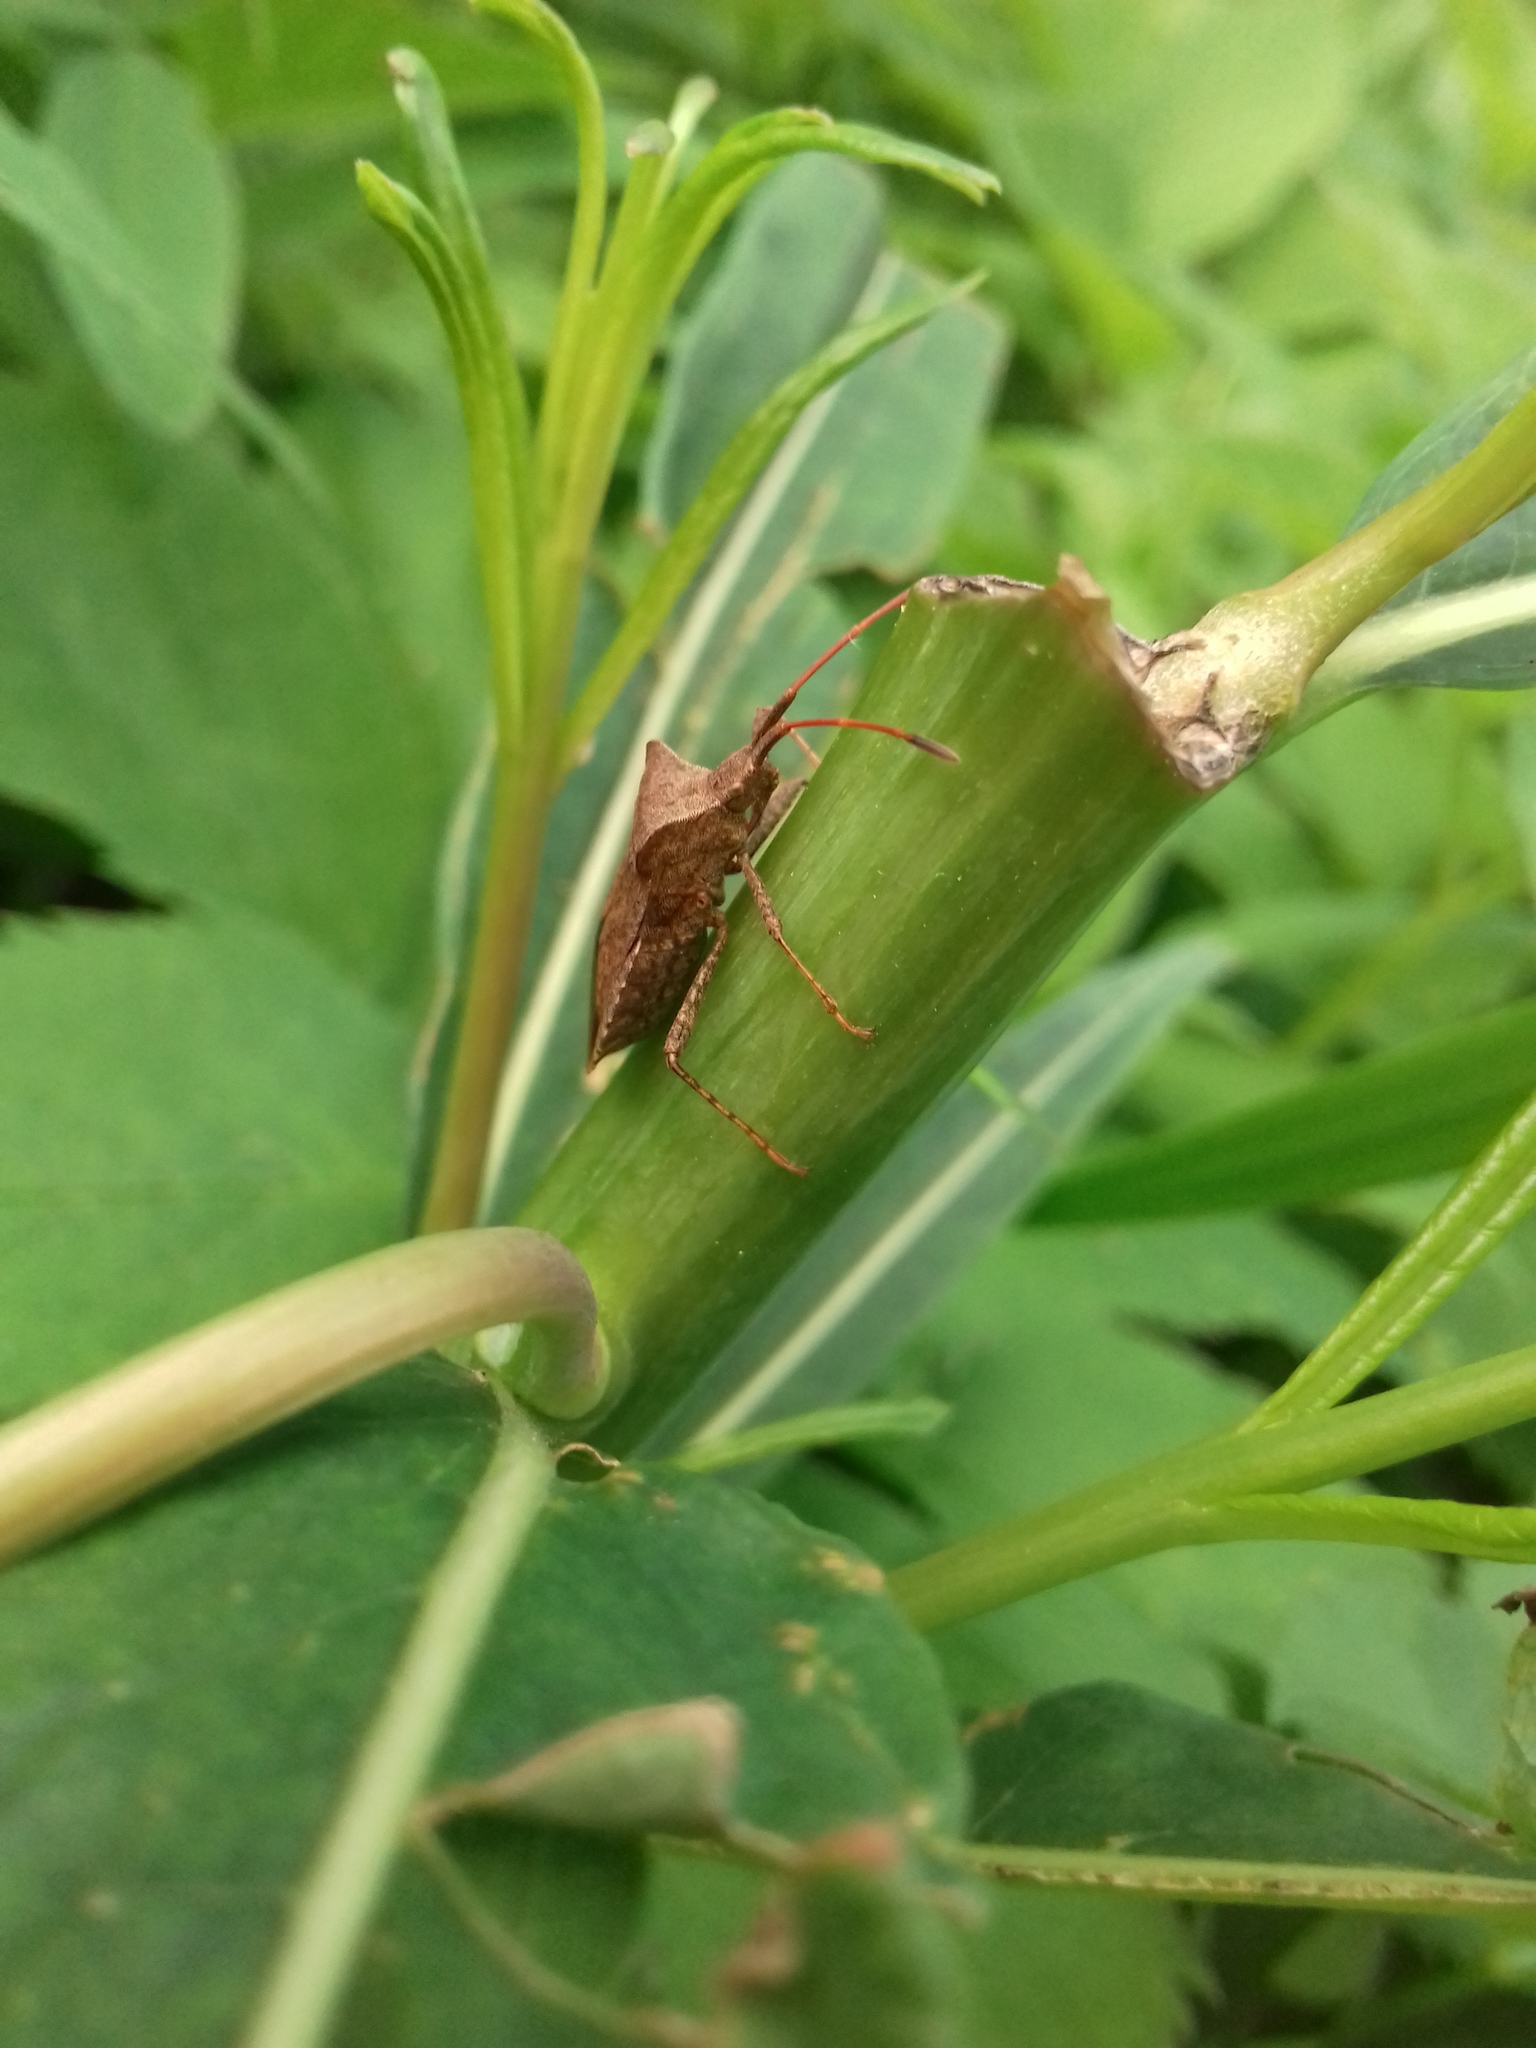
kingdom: Animalia
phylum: Arthropoda
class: Insecta
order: Hemiptera
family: Coreidae
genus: Coreus
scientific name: Coreus marginatus
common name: Dock bug
